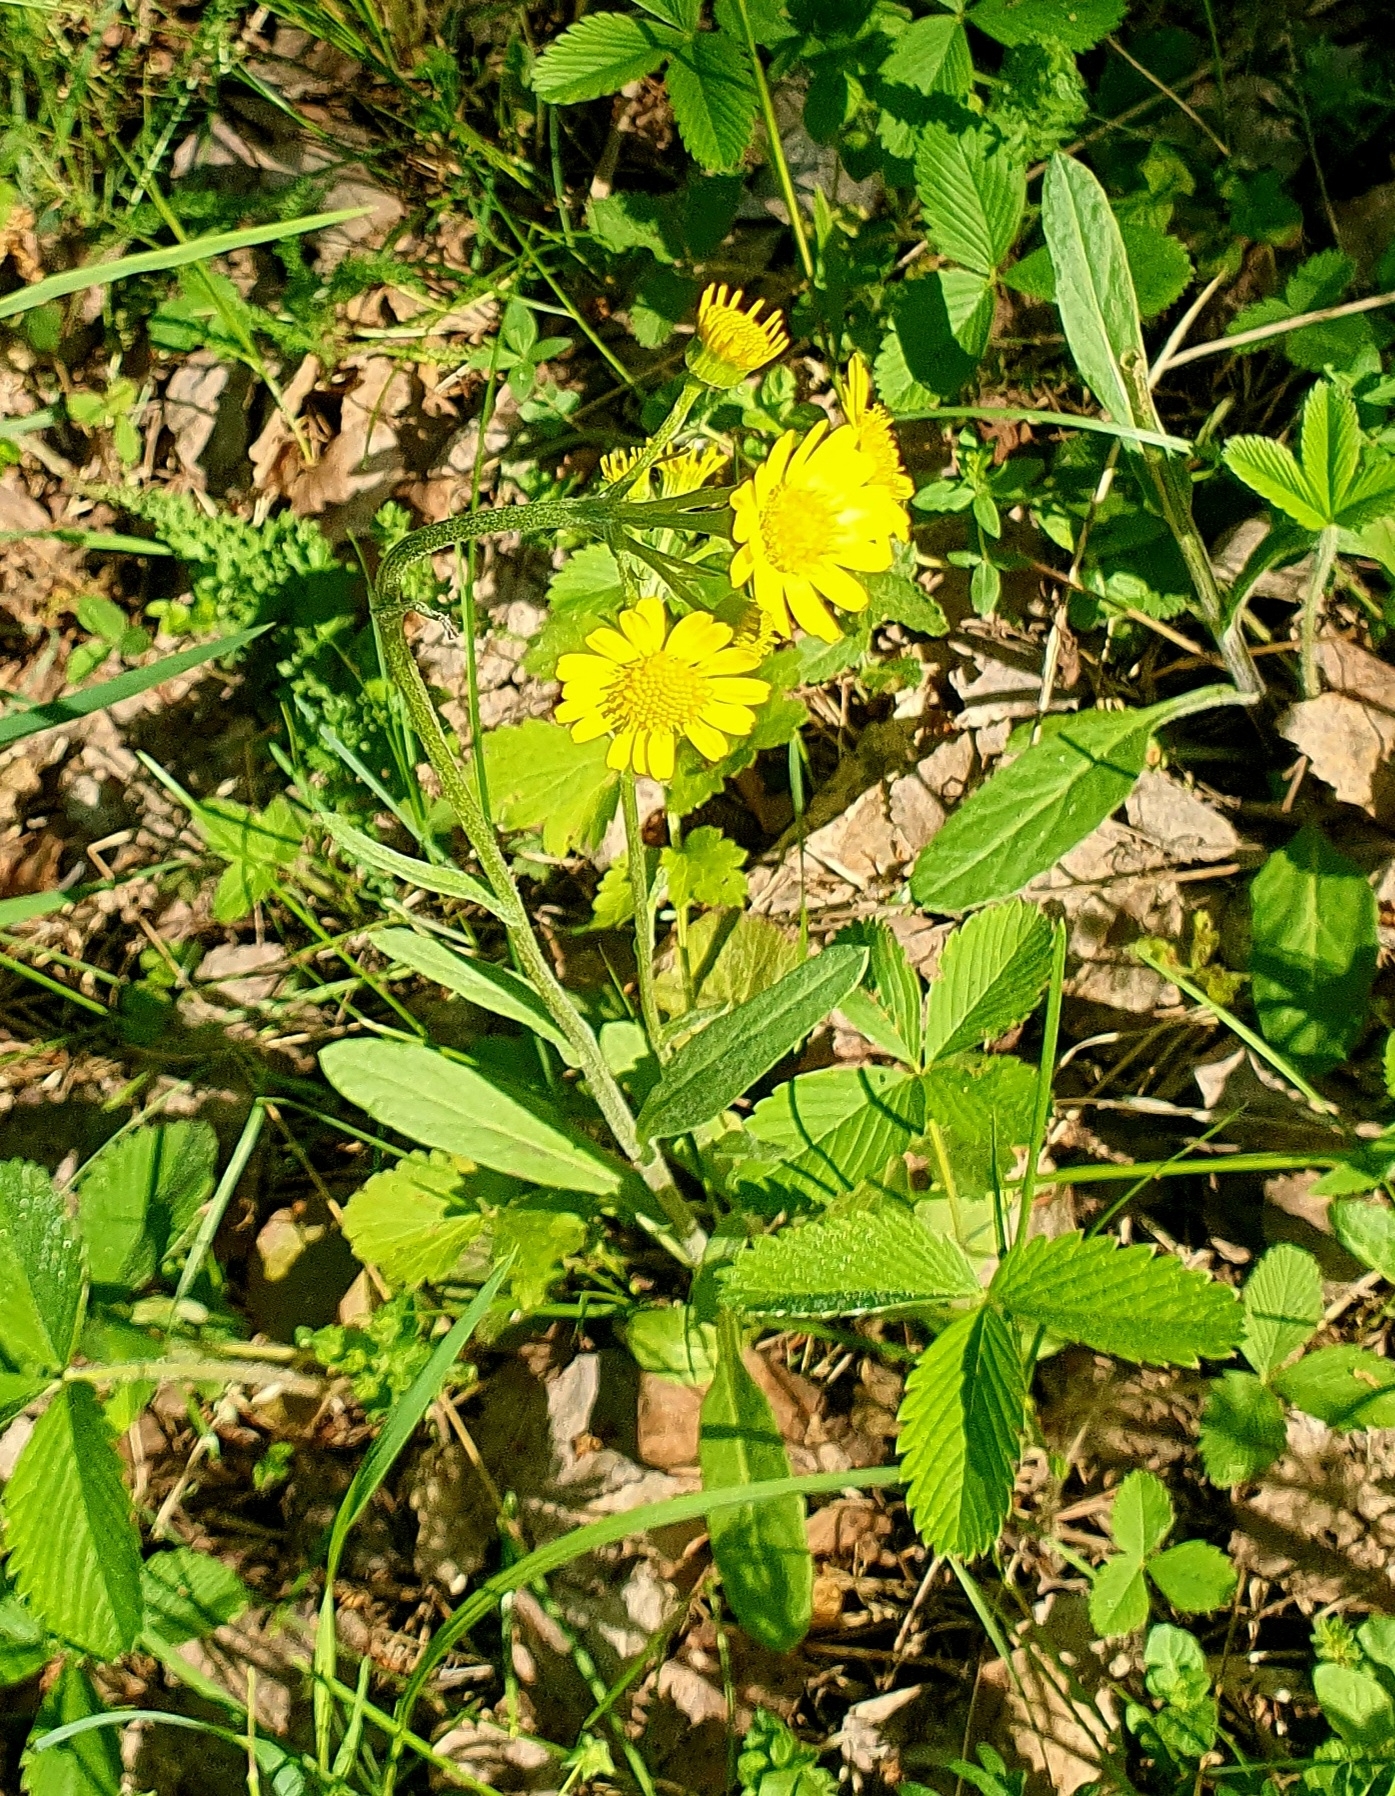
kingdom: Plantae
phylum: Tracheophyta
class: Magnoliopsida
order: Asterales
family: Asteraceae
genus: Tephroseris
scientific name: Tephroseris integrifolia
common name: Field fleawort
